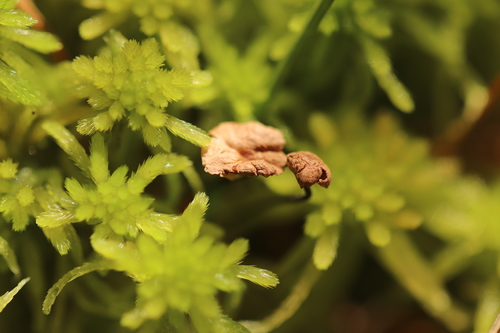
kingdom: Fungi
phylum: Basidiomycota
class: Agaricomycetes
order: Agaricales
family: Omphalotaceae
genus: Gymnopus
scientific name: Gymnopus androsaceus
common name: Horse-hair fungus
